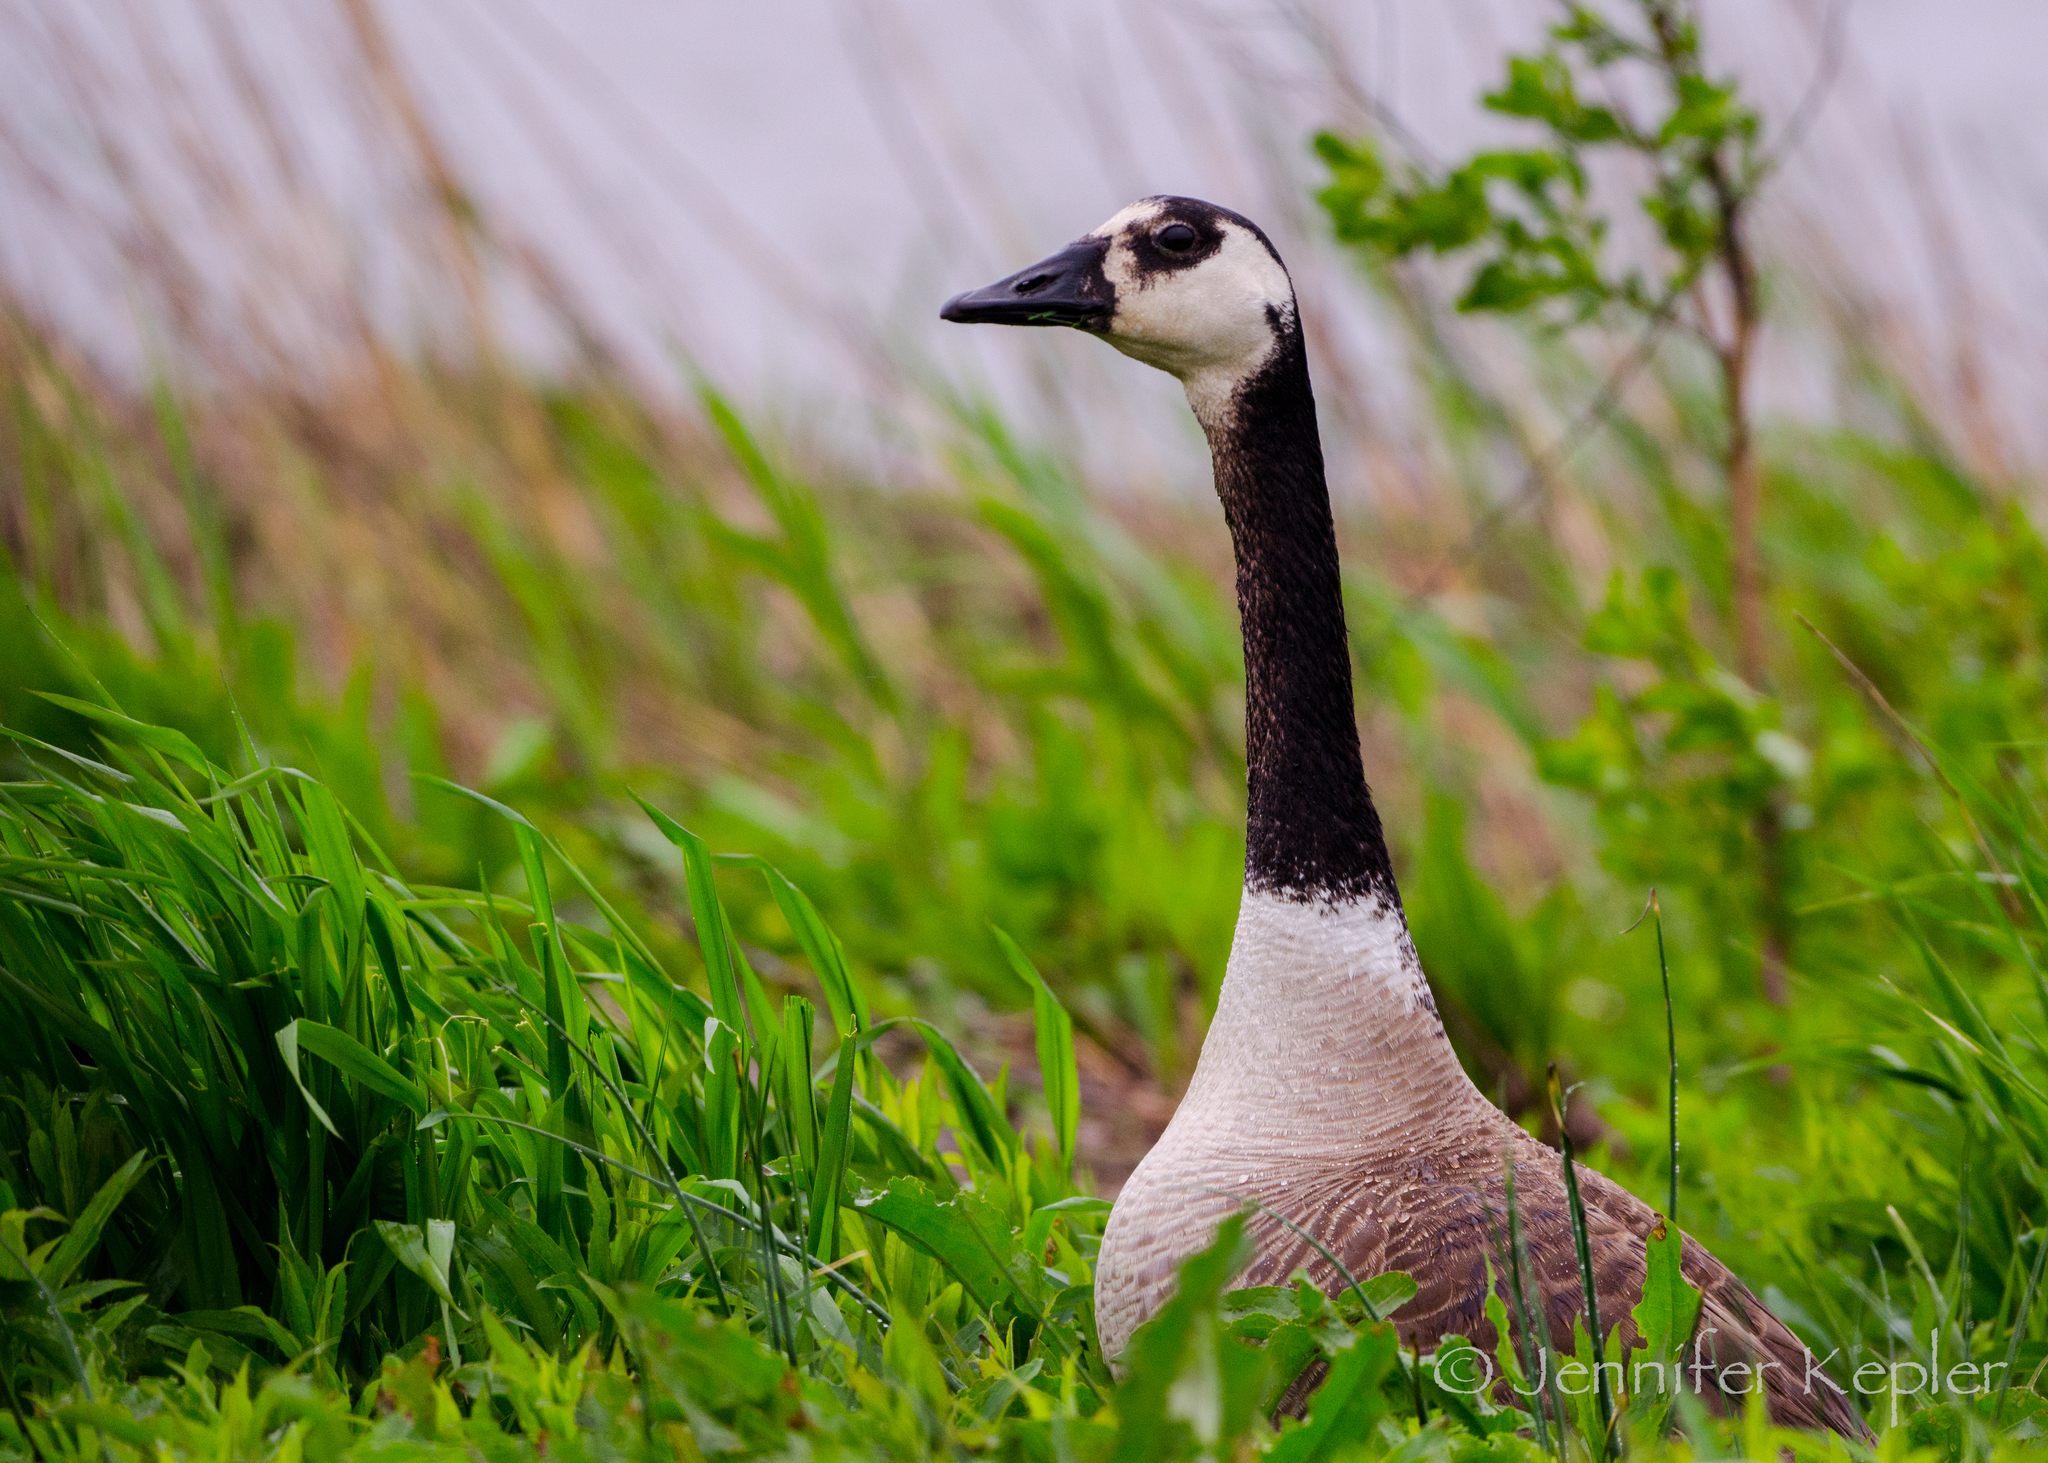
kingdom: Animalia
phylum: Chordata
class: Aves
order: Anseriformes
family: Anatidae
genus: Branta
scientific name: Branta canadensis
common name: Canada goose
